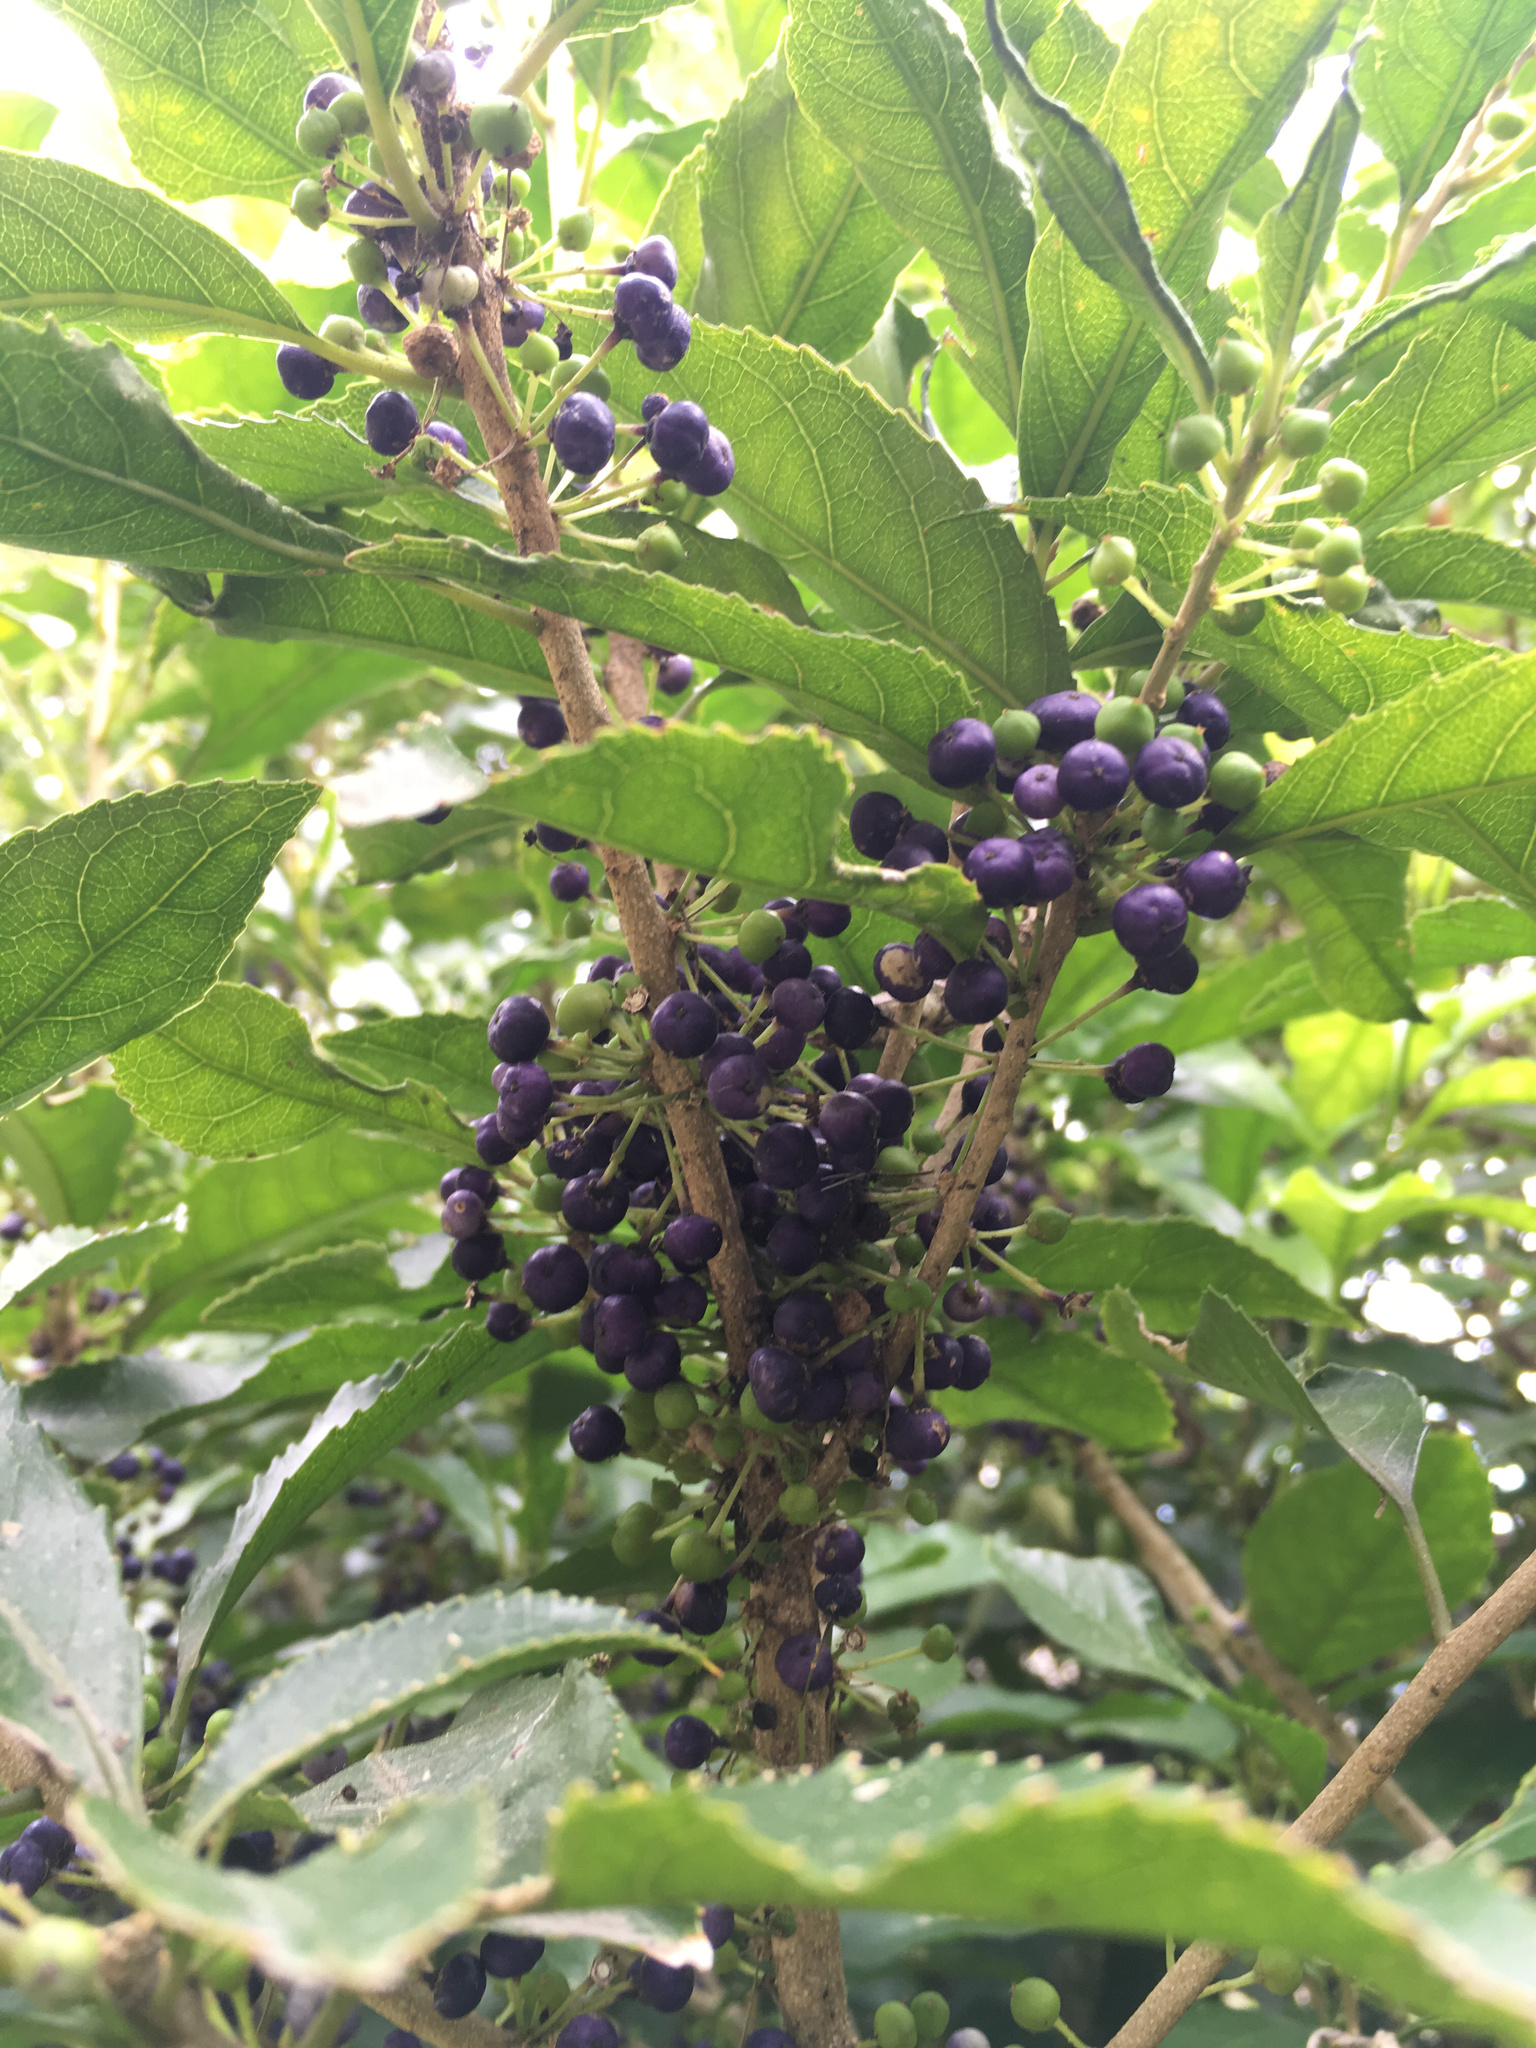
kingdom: Plantae
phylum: Tracheophyta
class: Magnoliopsida
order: Malpighiales
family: Violaceae
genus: Melicytus
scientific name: Melicytus ramiflorus
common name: Mahoe
